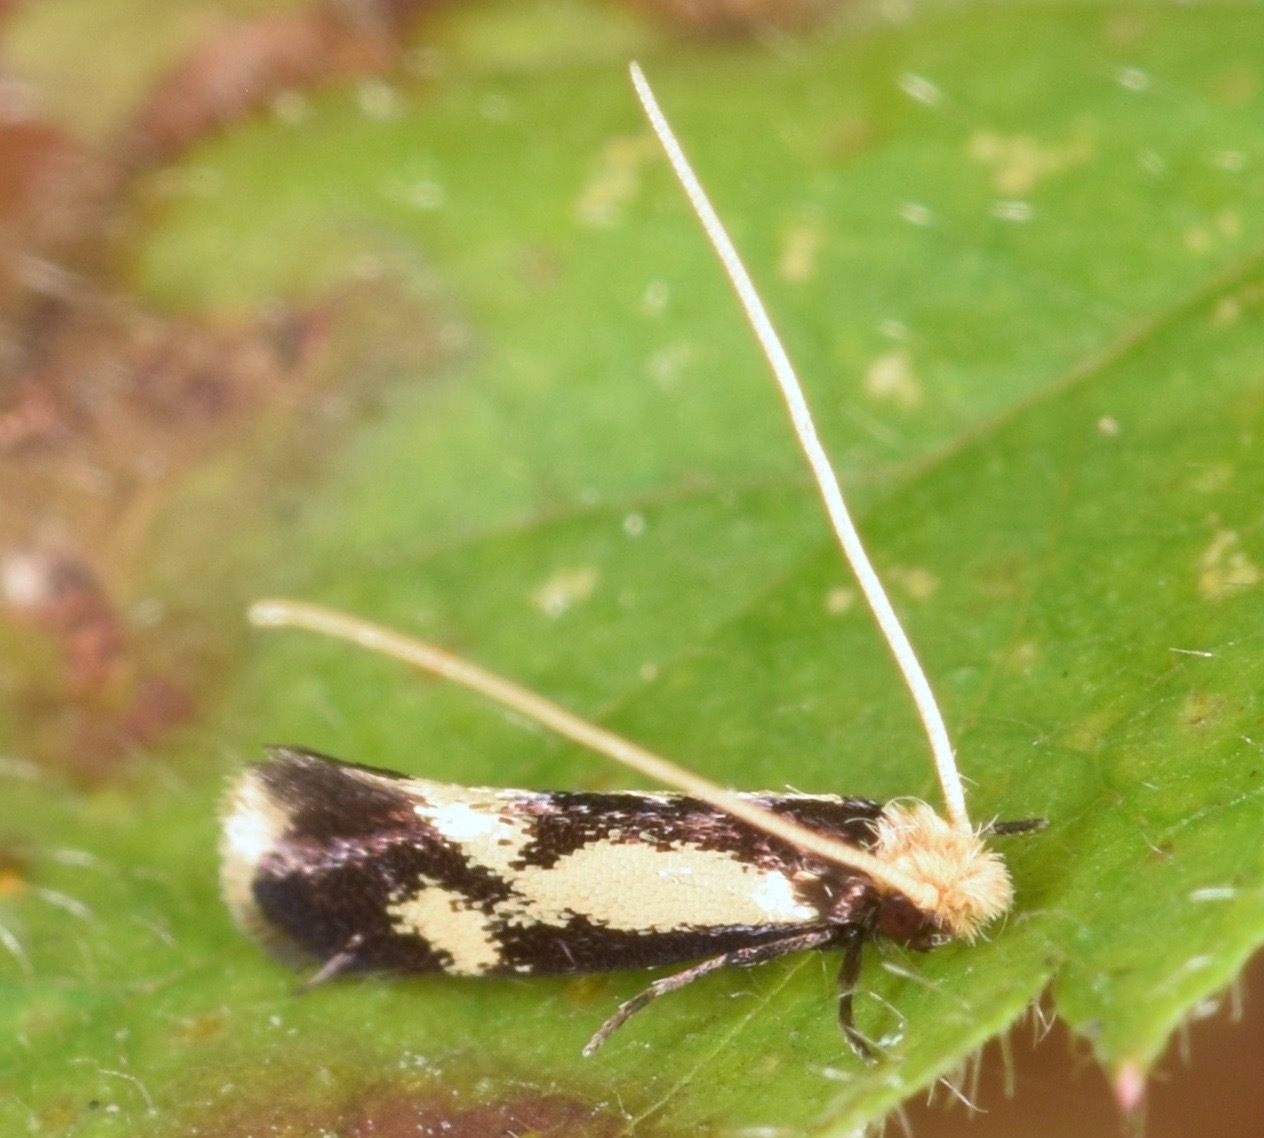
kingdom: Animalia
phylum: Arthropoda
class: Insecta
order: Lepidoptera
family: Meessiidae
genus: Isocorypha
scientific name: Isocorypha mediostriatella
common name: Old gold isocorypha moth
